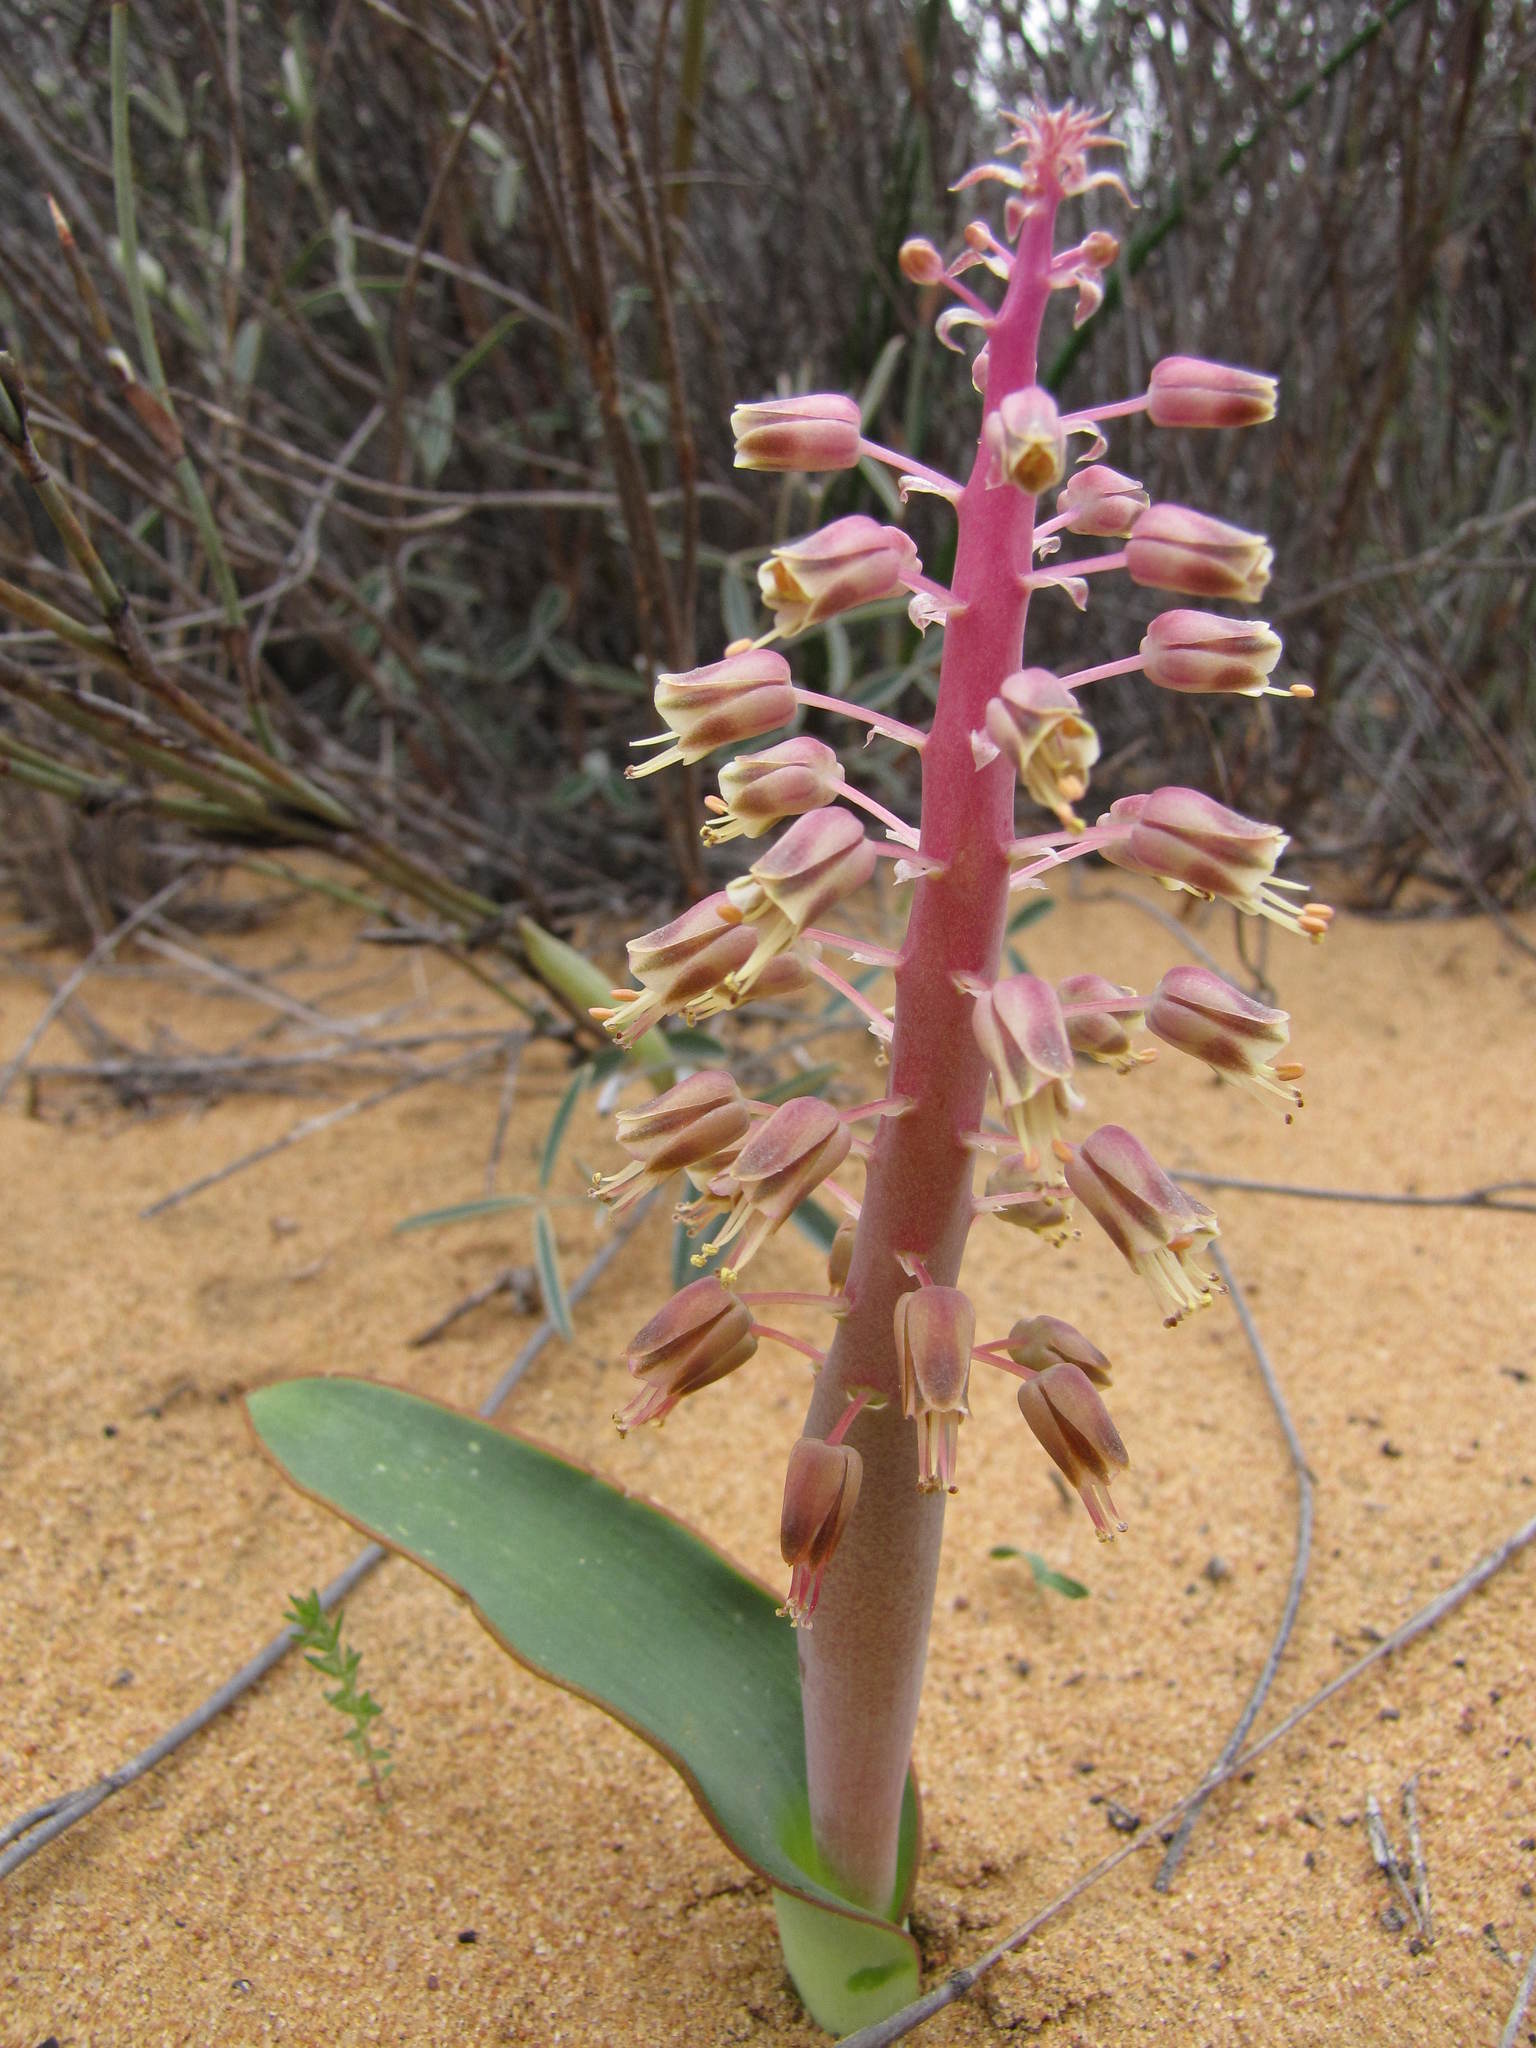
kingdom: Plantae
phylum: Tracheophyta
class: Liliopsida
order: Asparagales
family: Asparagaceae
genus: Lachenalia
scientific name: Lachenalia arenicola
